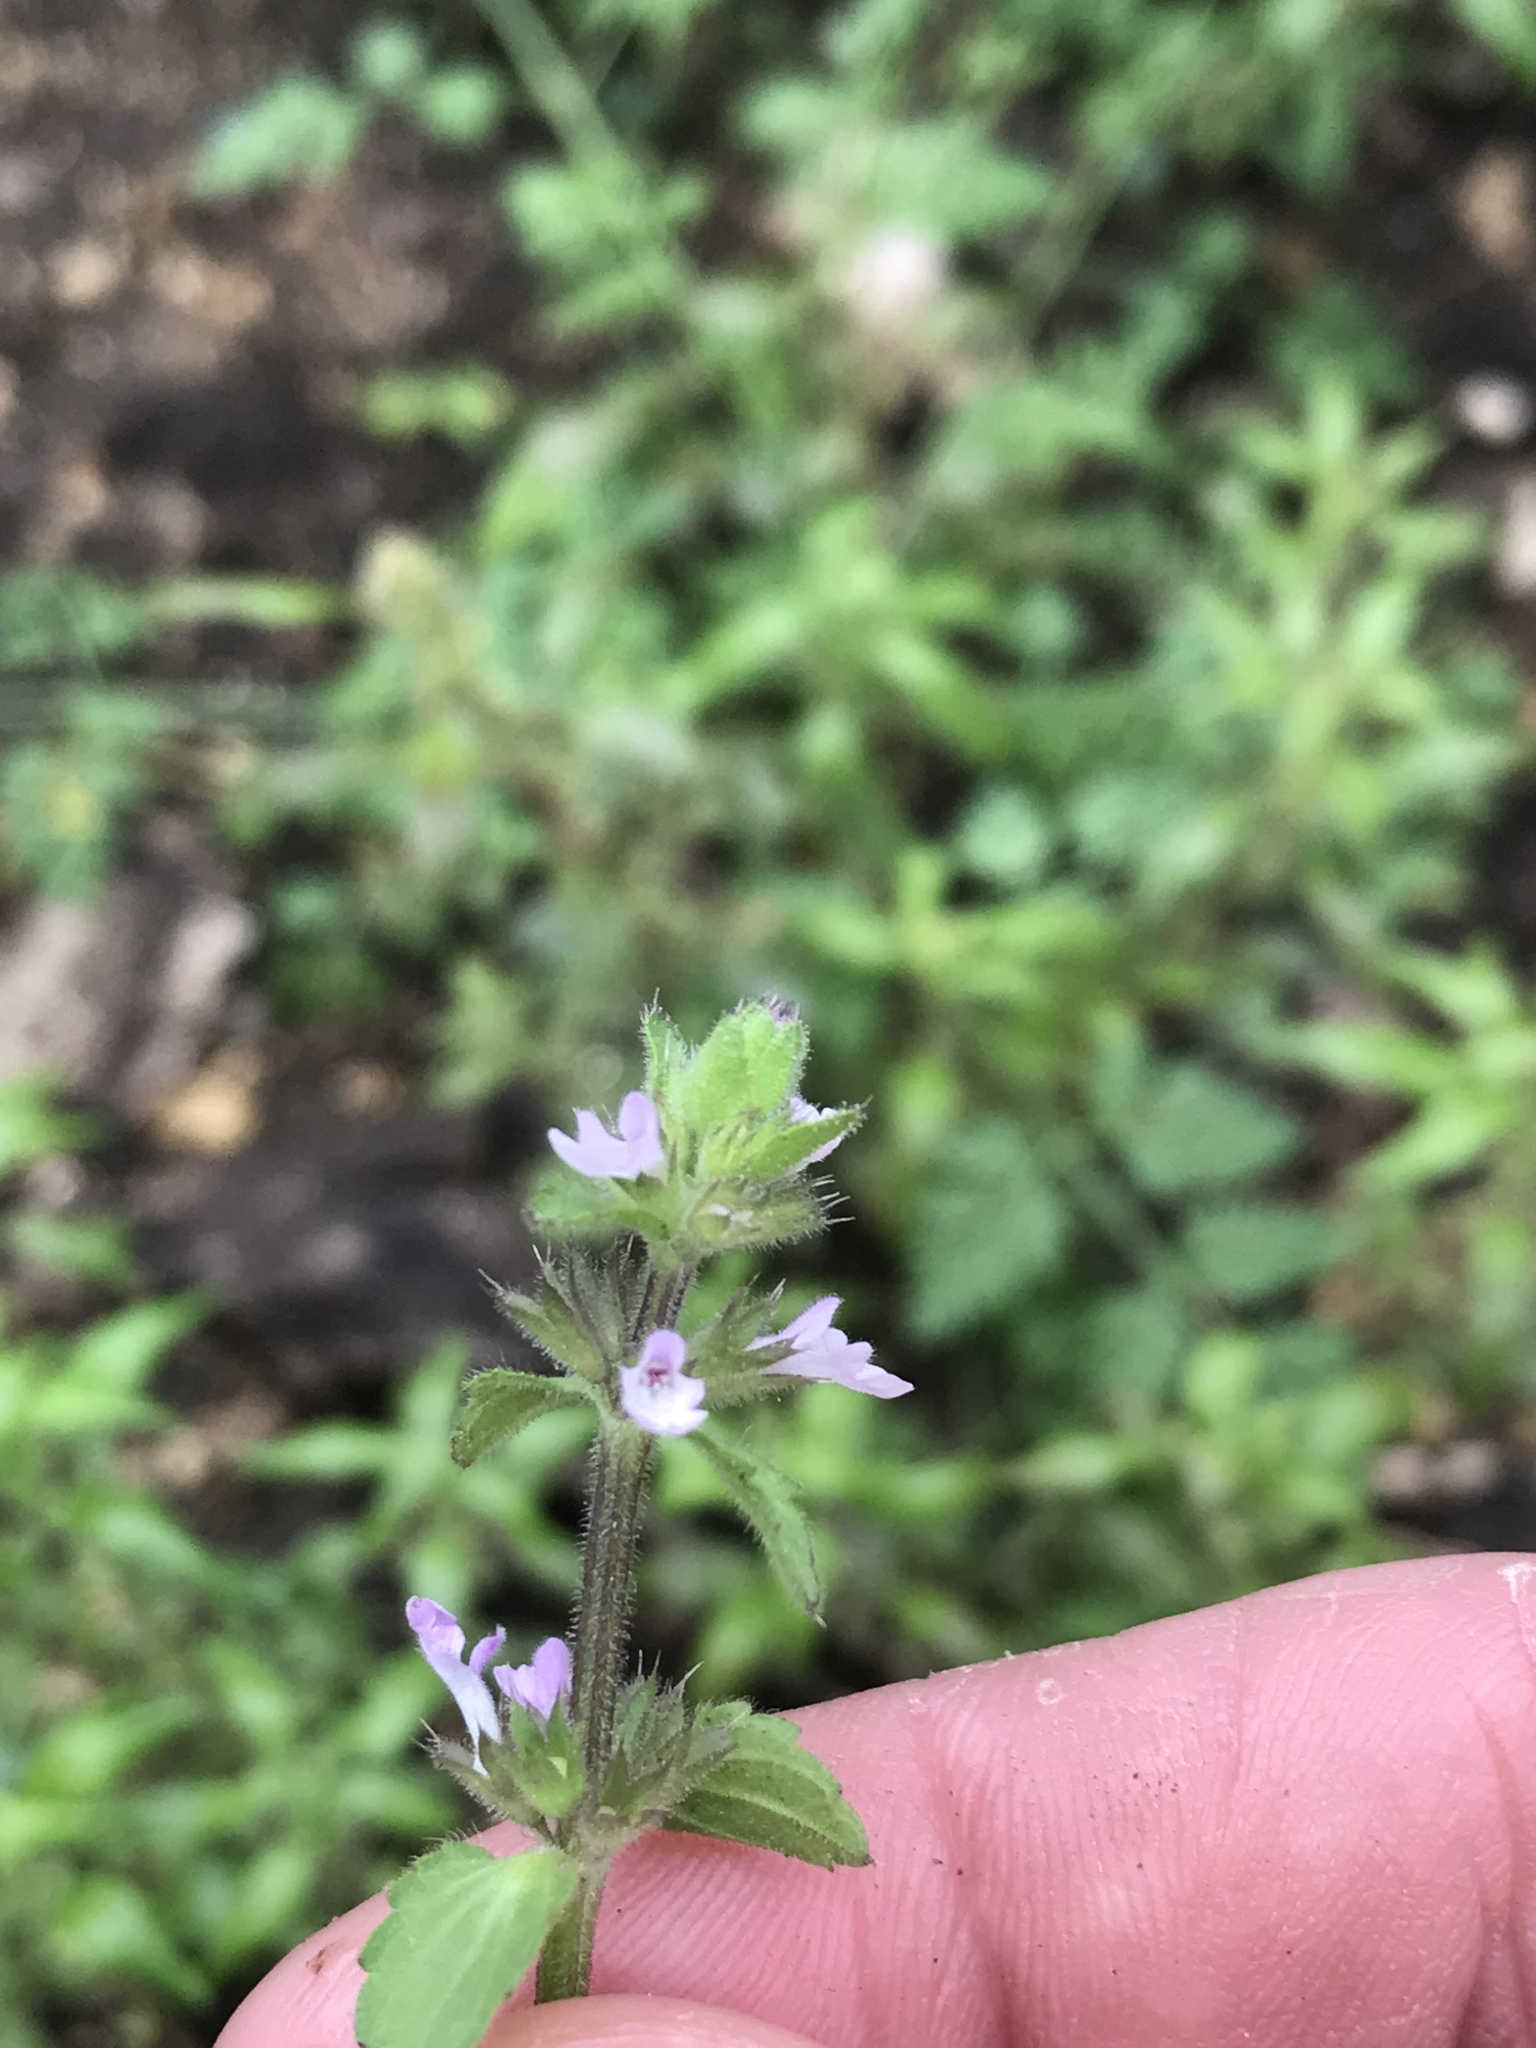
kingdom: Plantae
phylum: Tracheophyta
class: Magnoliopsida
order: Lamiales
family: Lamiaceae
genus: Stachys
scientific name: Stachys
